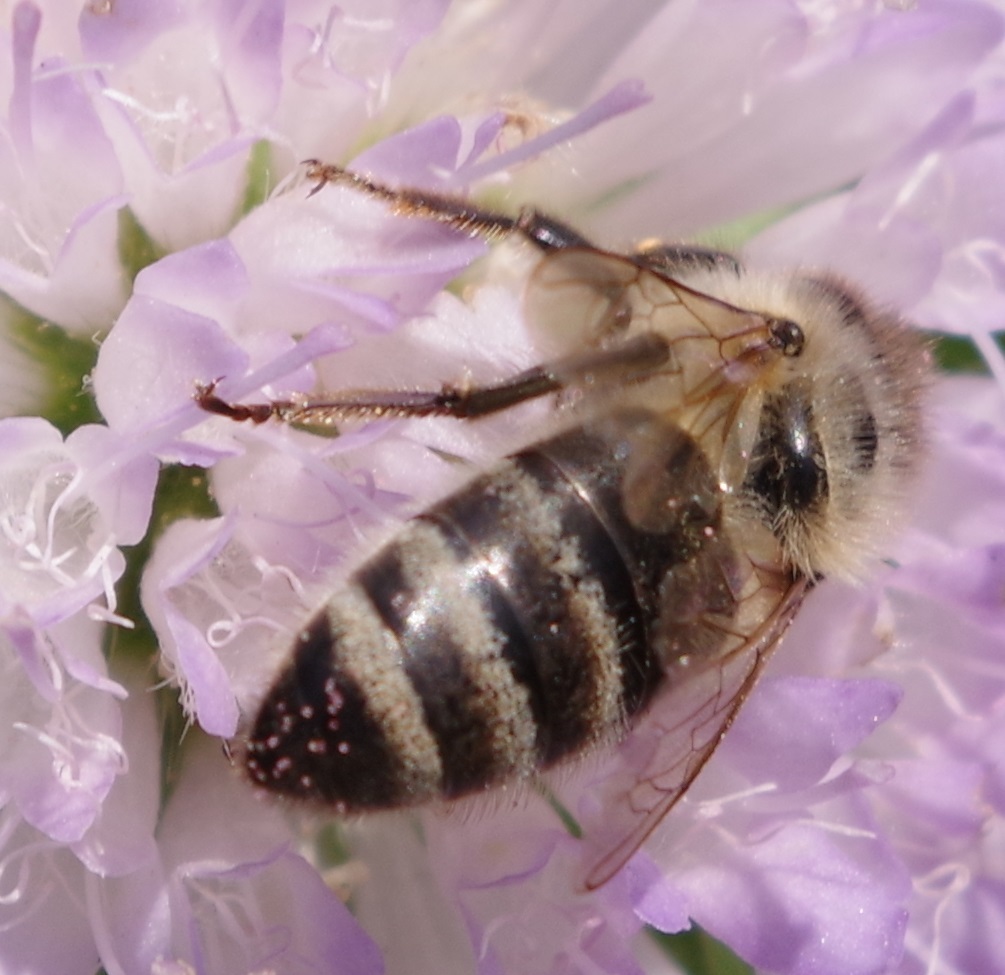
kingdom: Animalia
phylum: Arthropoda
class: Insecta
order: Hymenoptera
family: Apidae
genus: Apis
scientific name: Apis mellifera
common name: Honey bee
